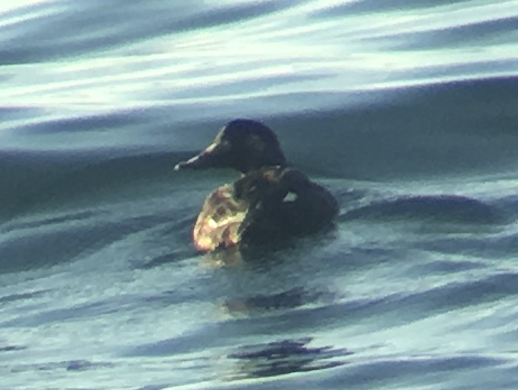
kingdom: Animalia
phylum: Chordata
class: Aves
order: Anseriformes
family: Anatidae
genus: Melanitta
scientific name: Melanitta deglandi
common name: White-winged scoter
